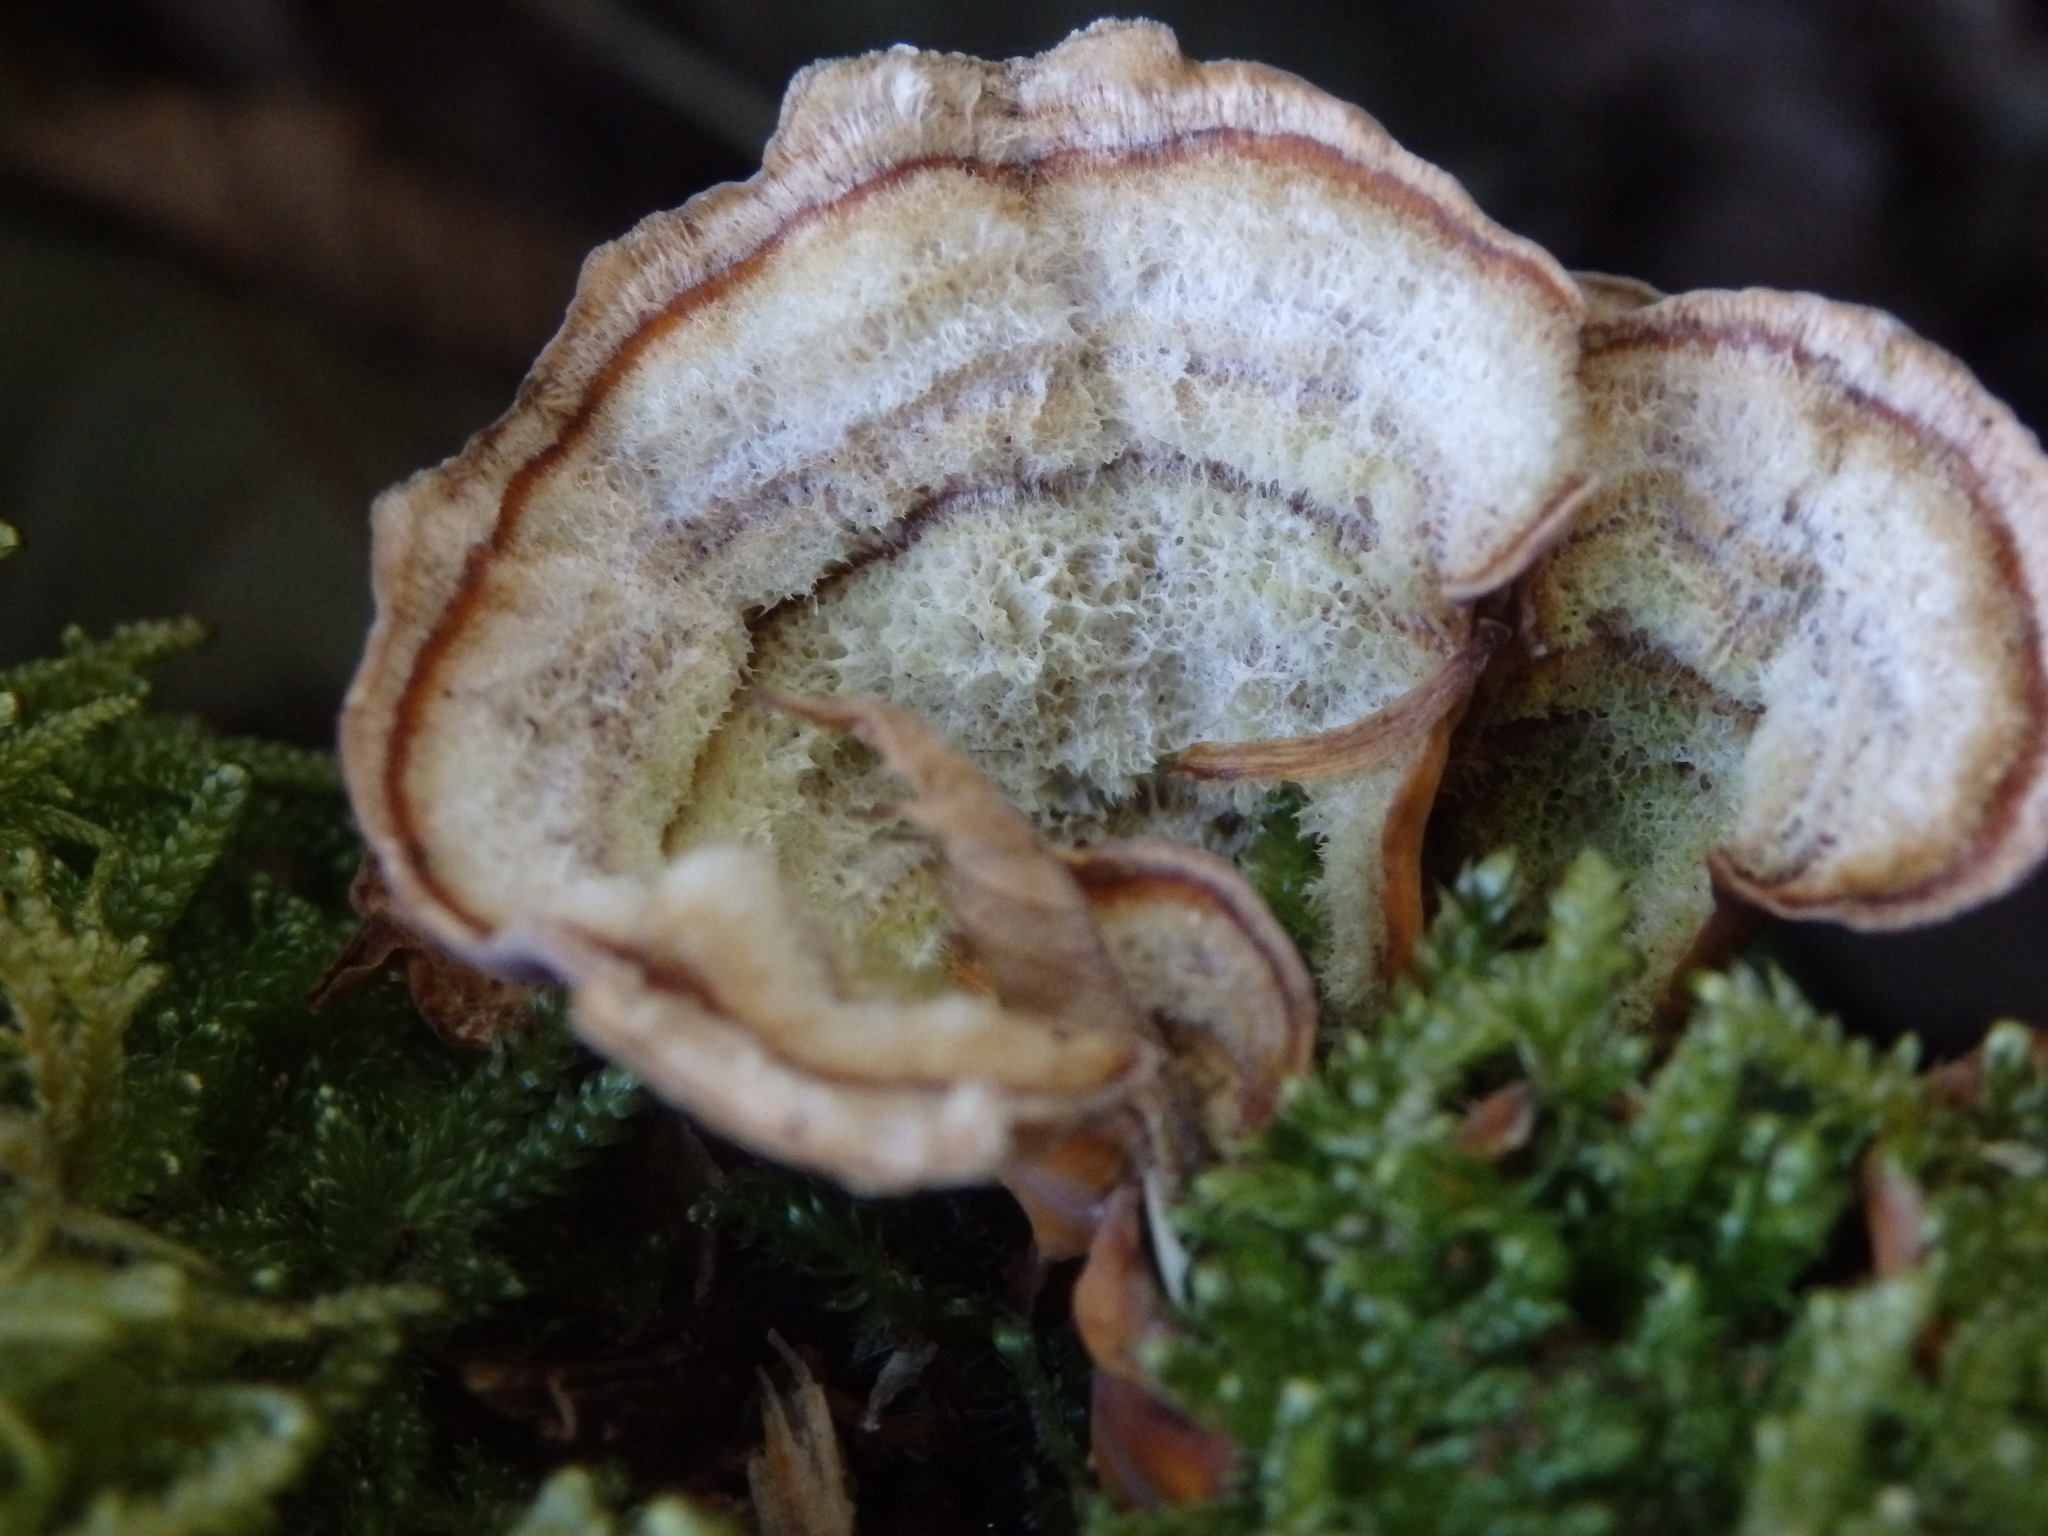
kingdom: Fungi
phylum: Basidiomycota
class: Agaricomycetes
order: Russulales
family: Stereaceae
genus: Stereum
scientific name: Stereum versicolor
